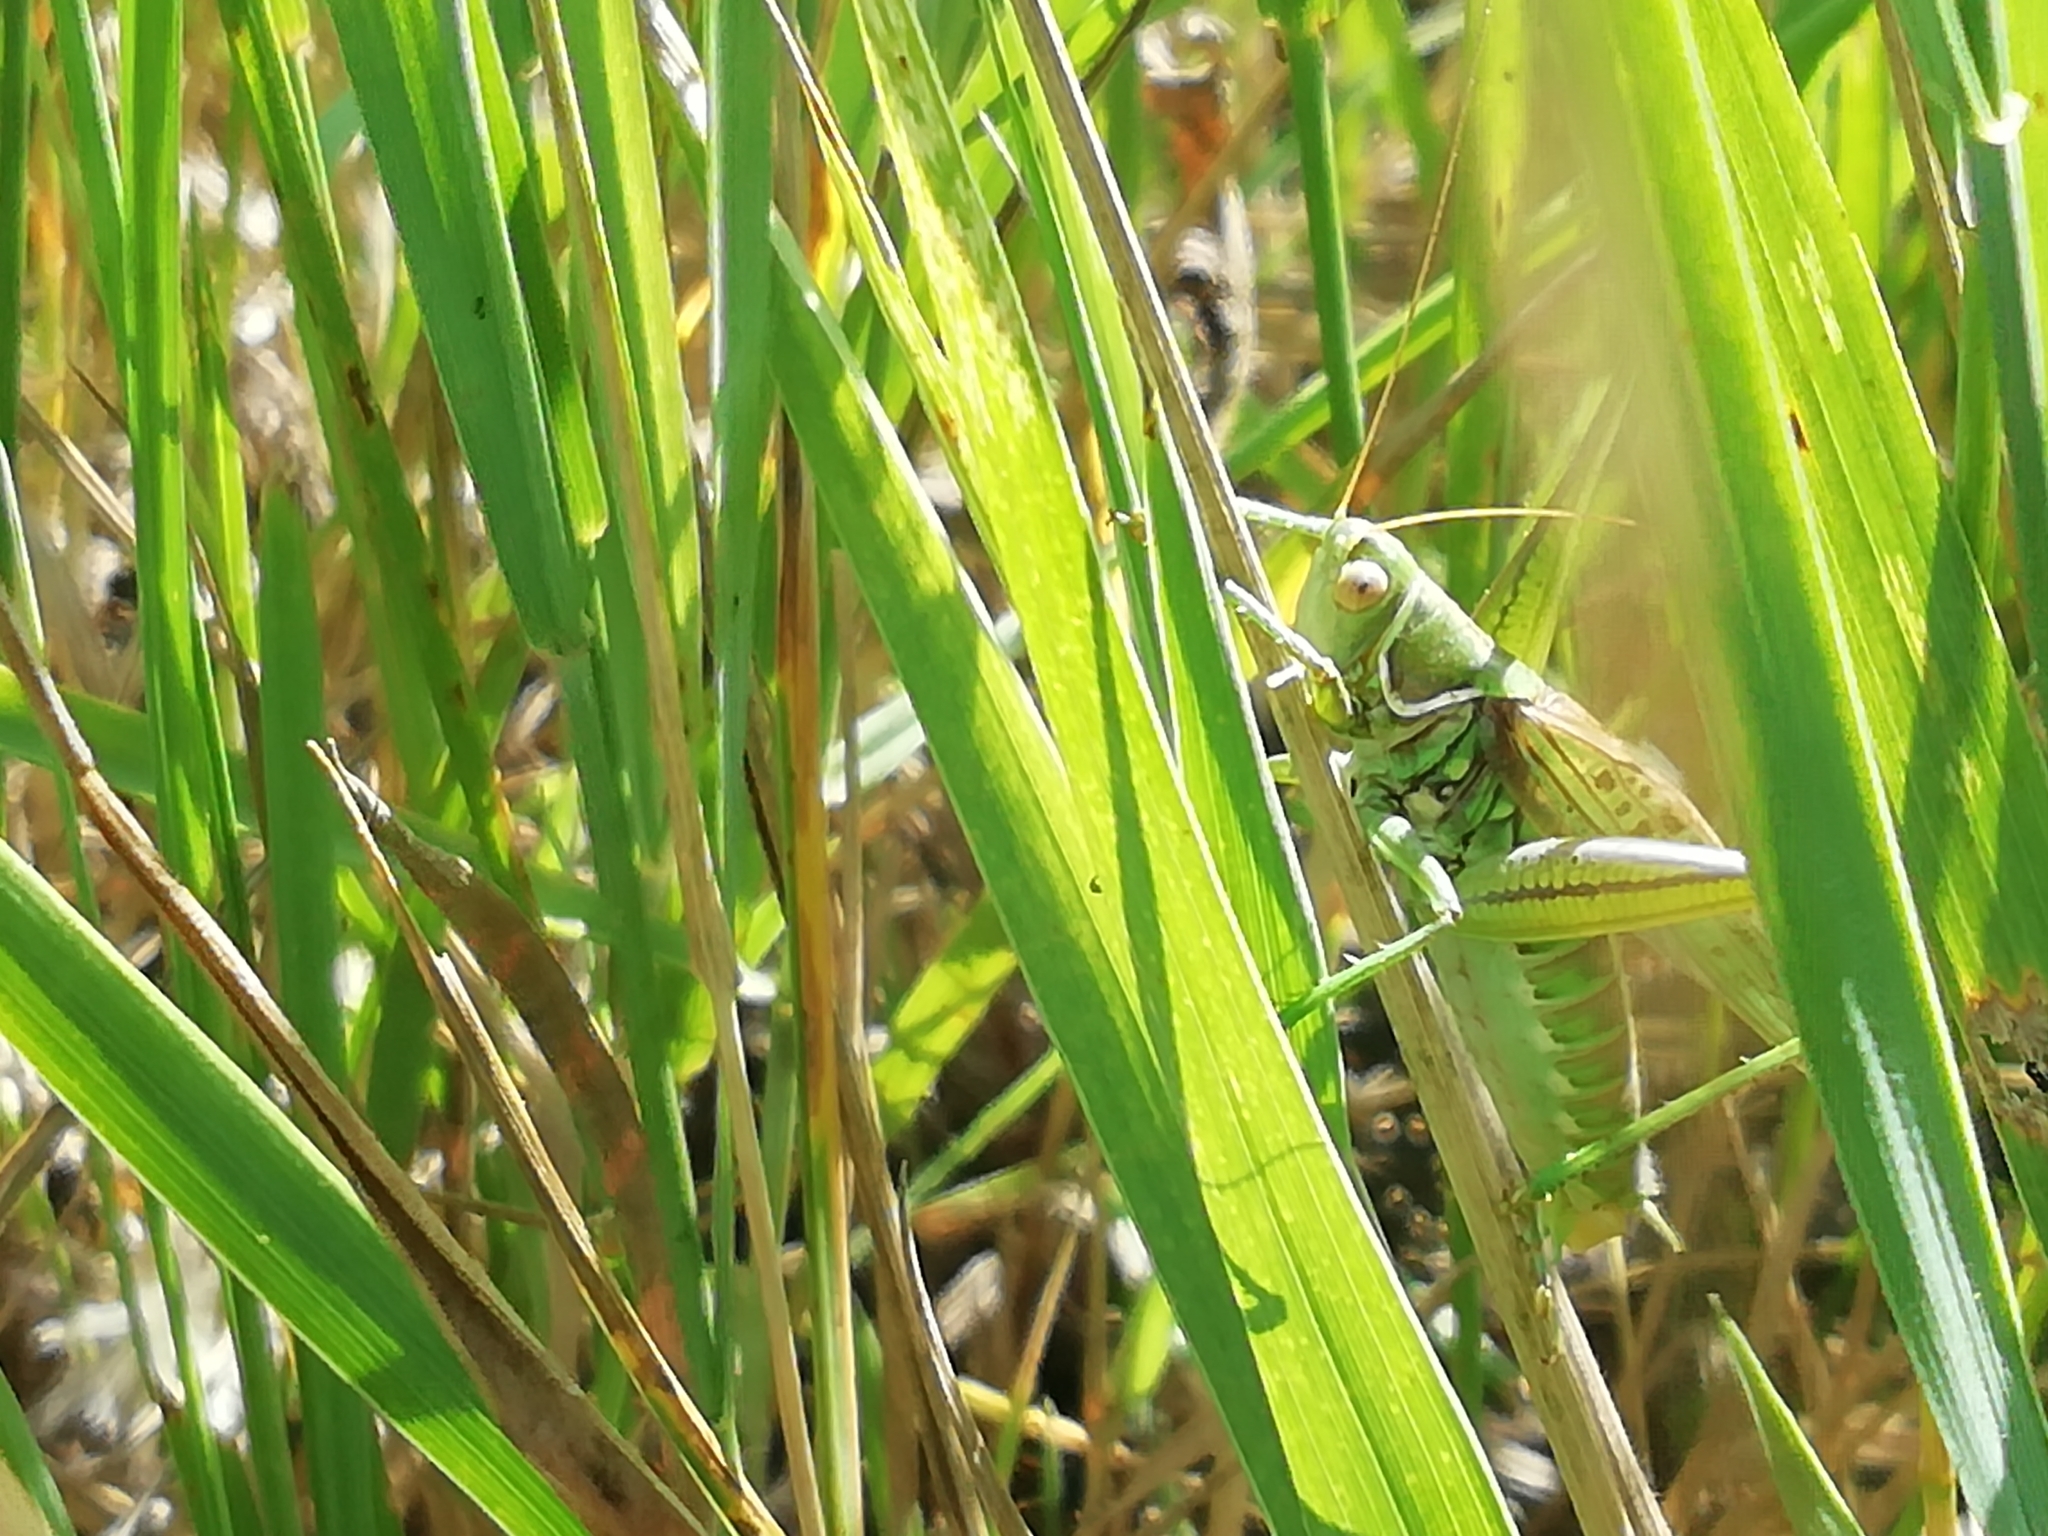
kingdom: Animalia
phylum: Arthropoda
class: Insecta
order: Orthoptera
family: Tettigoniidae
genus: Gampsocleis
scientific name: Gampsocleis glabra
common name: Heath bushcricket
